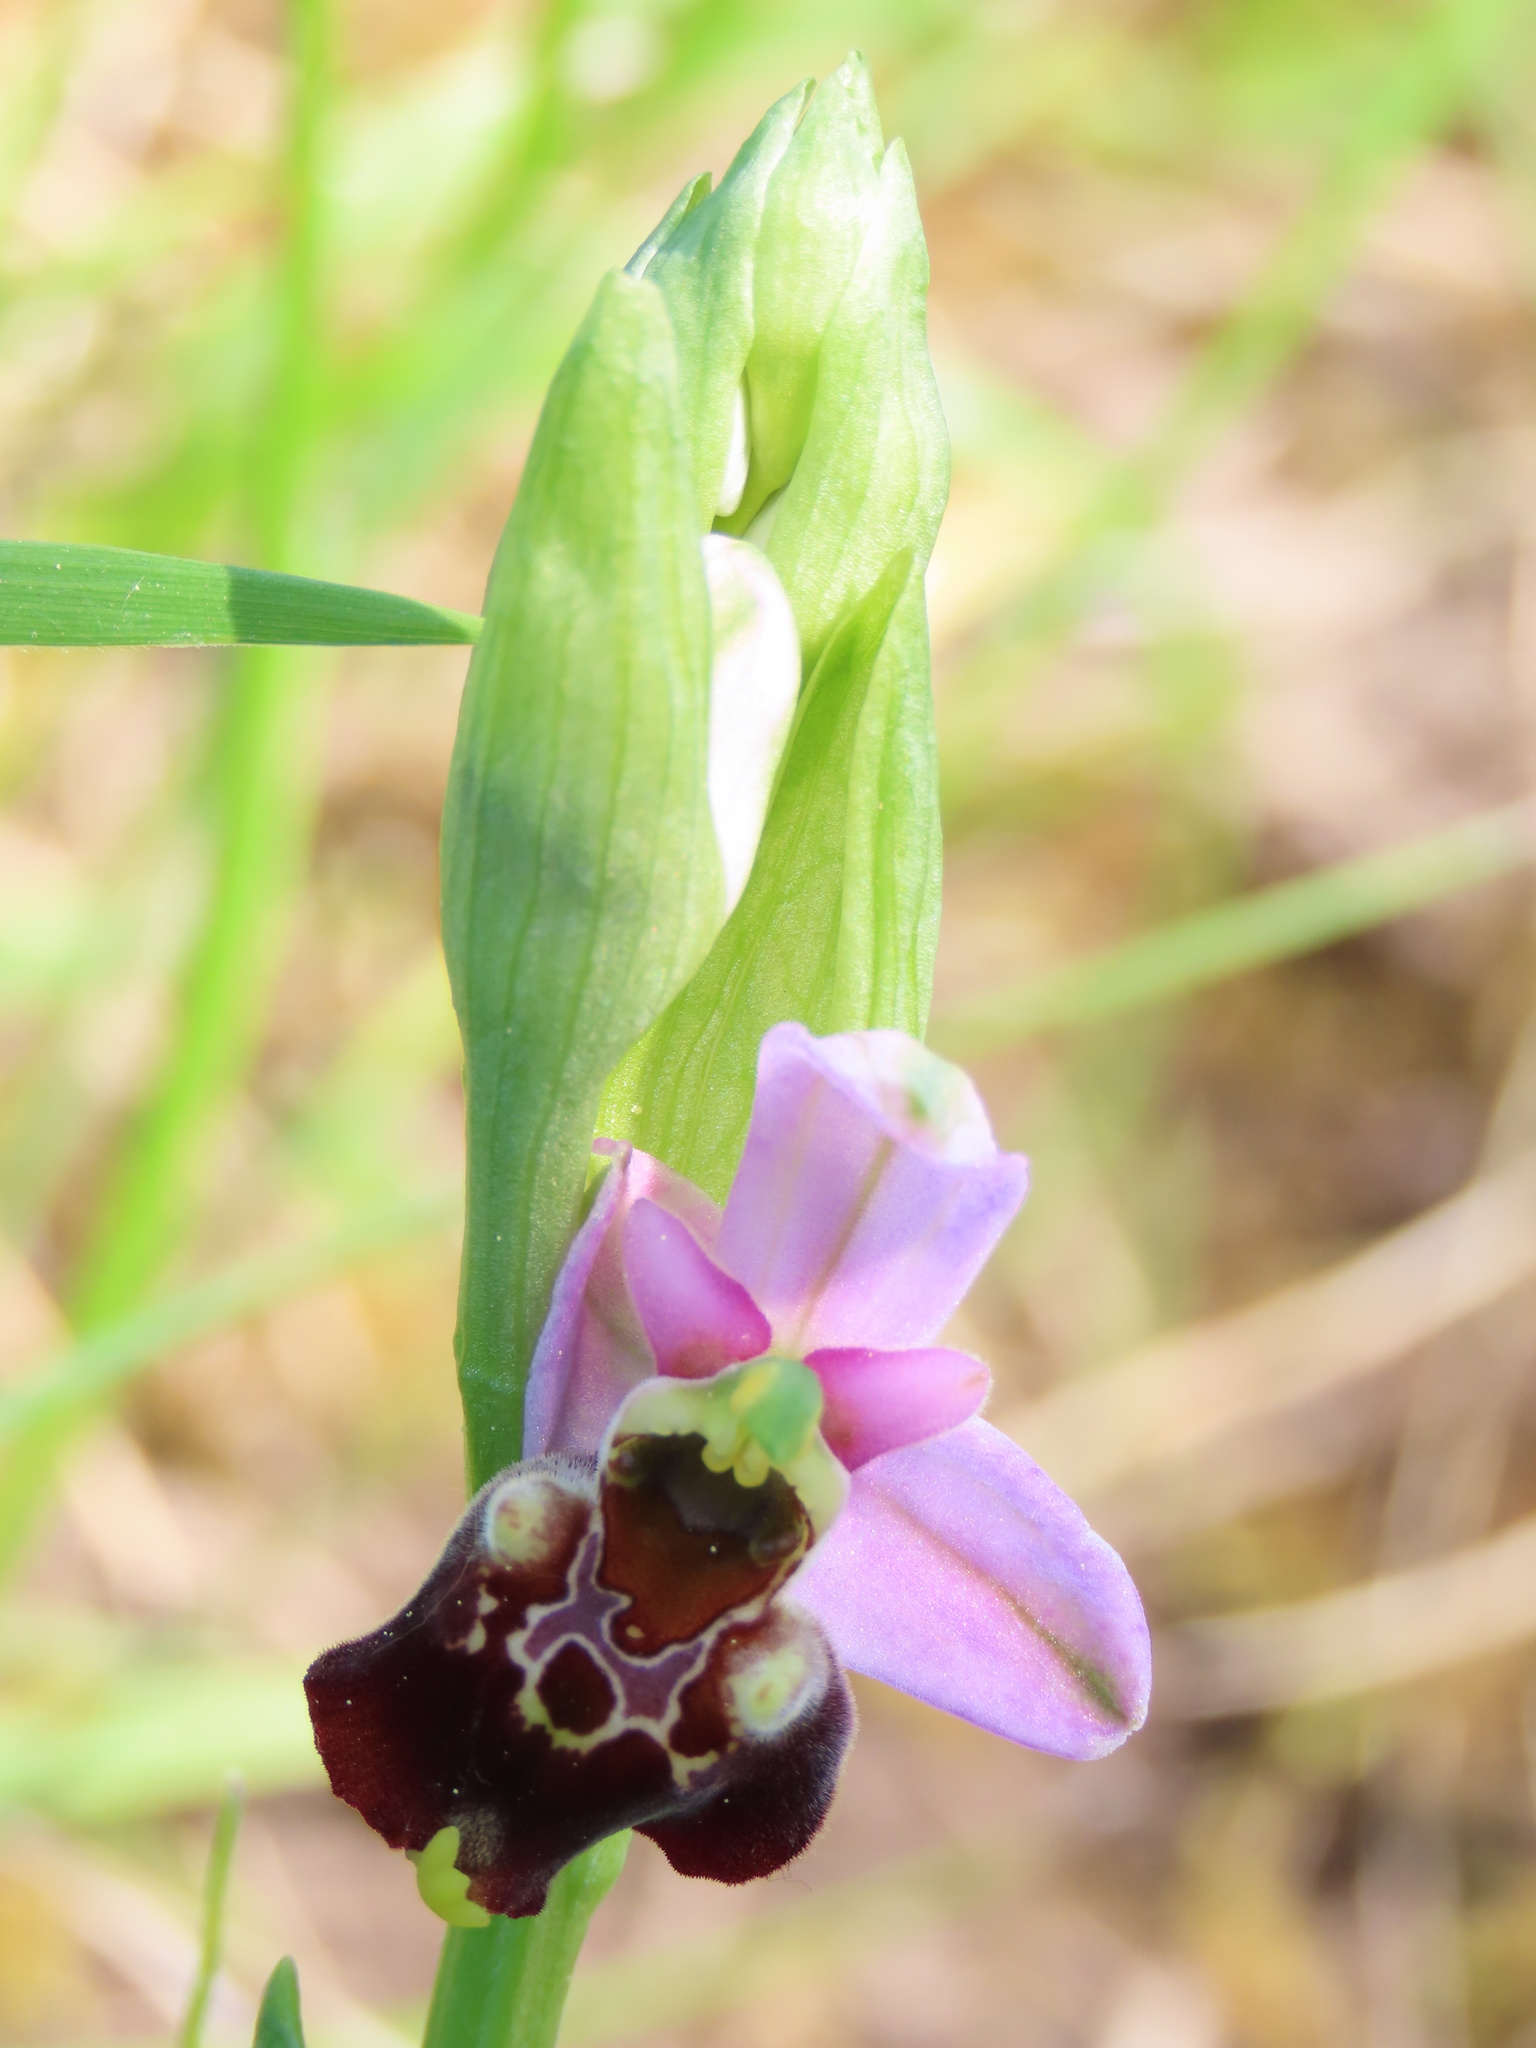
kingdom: Plantae
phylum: Tracheophyta
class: Liliopsida
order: Asparagales
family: Orchidaceae
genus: Ophrys
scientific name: Ophrys holosericea
